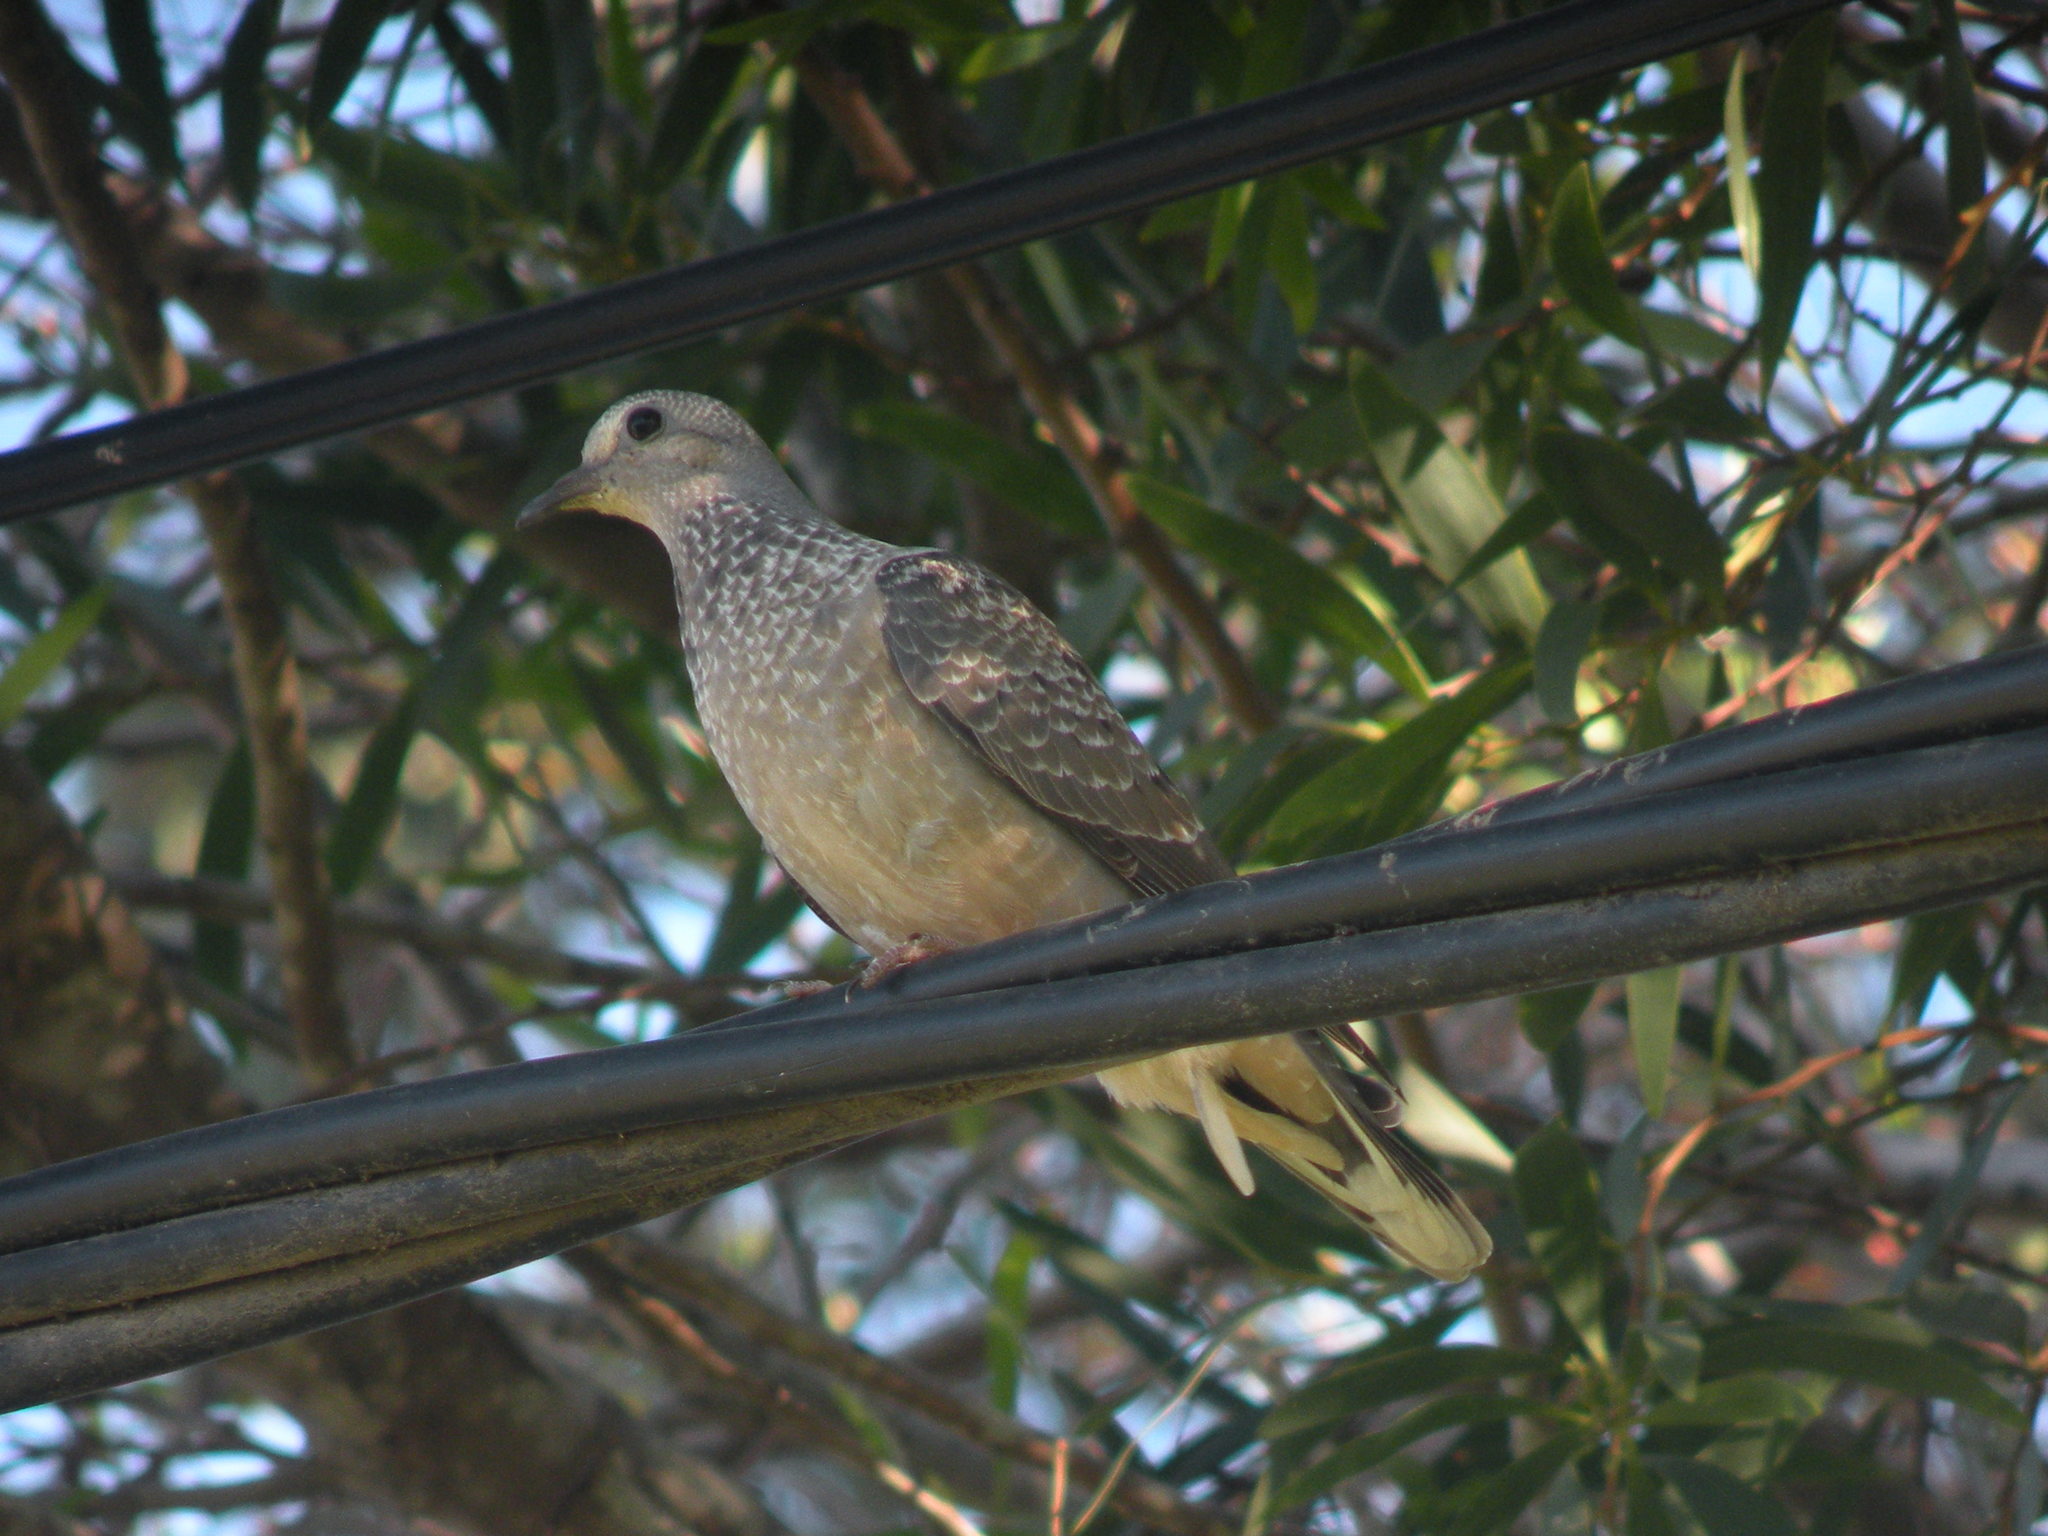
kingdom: Animalia
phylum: Chordata
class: Aves
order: Columbiformes
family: Columbidae
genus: Zenaida
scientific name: Zenaida auriculata
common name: Eared dove
